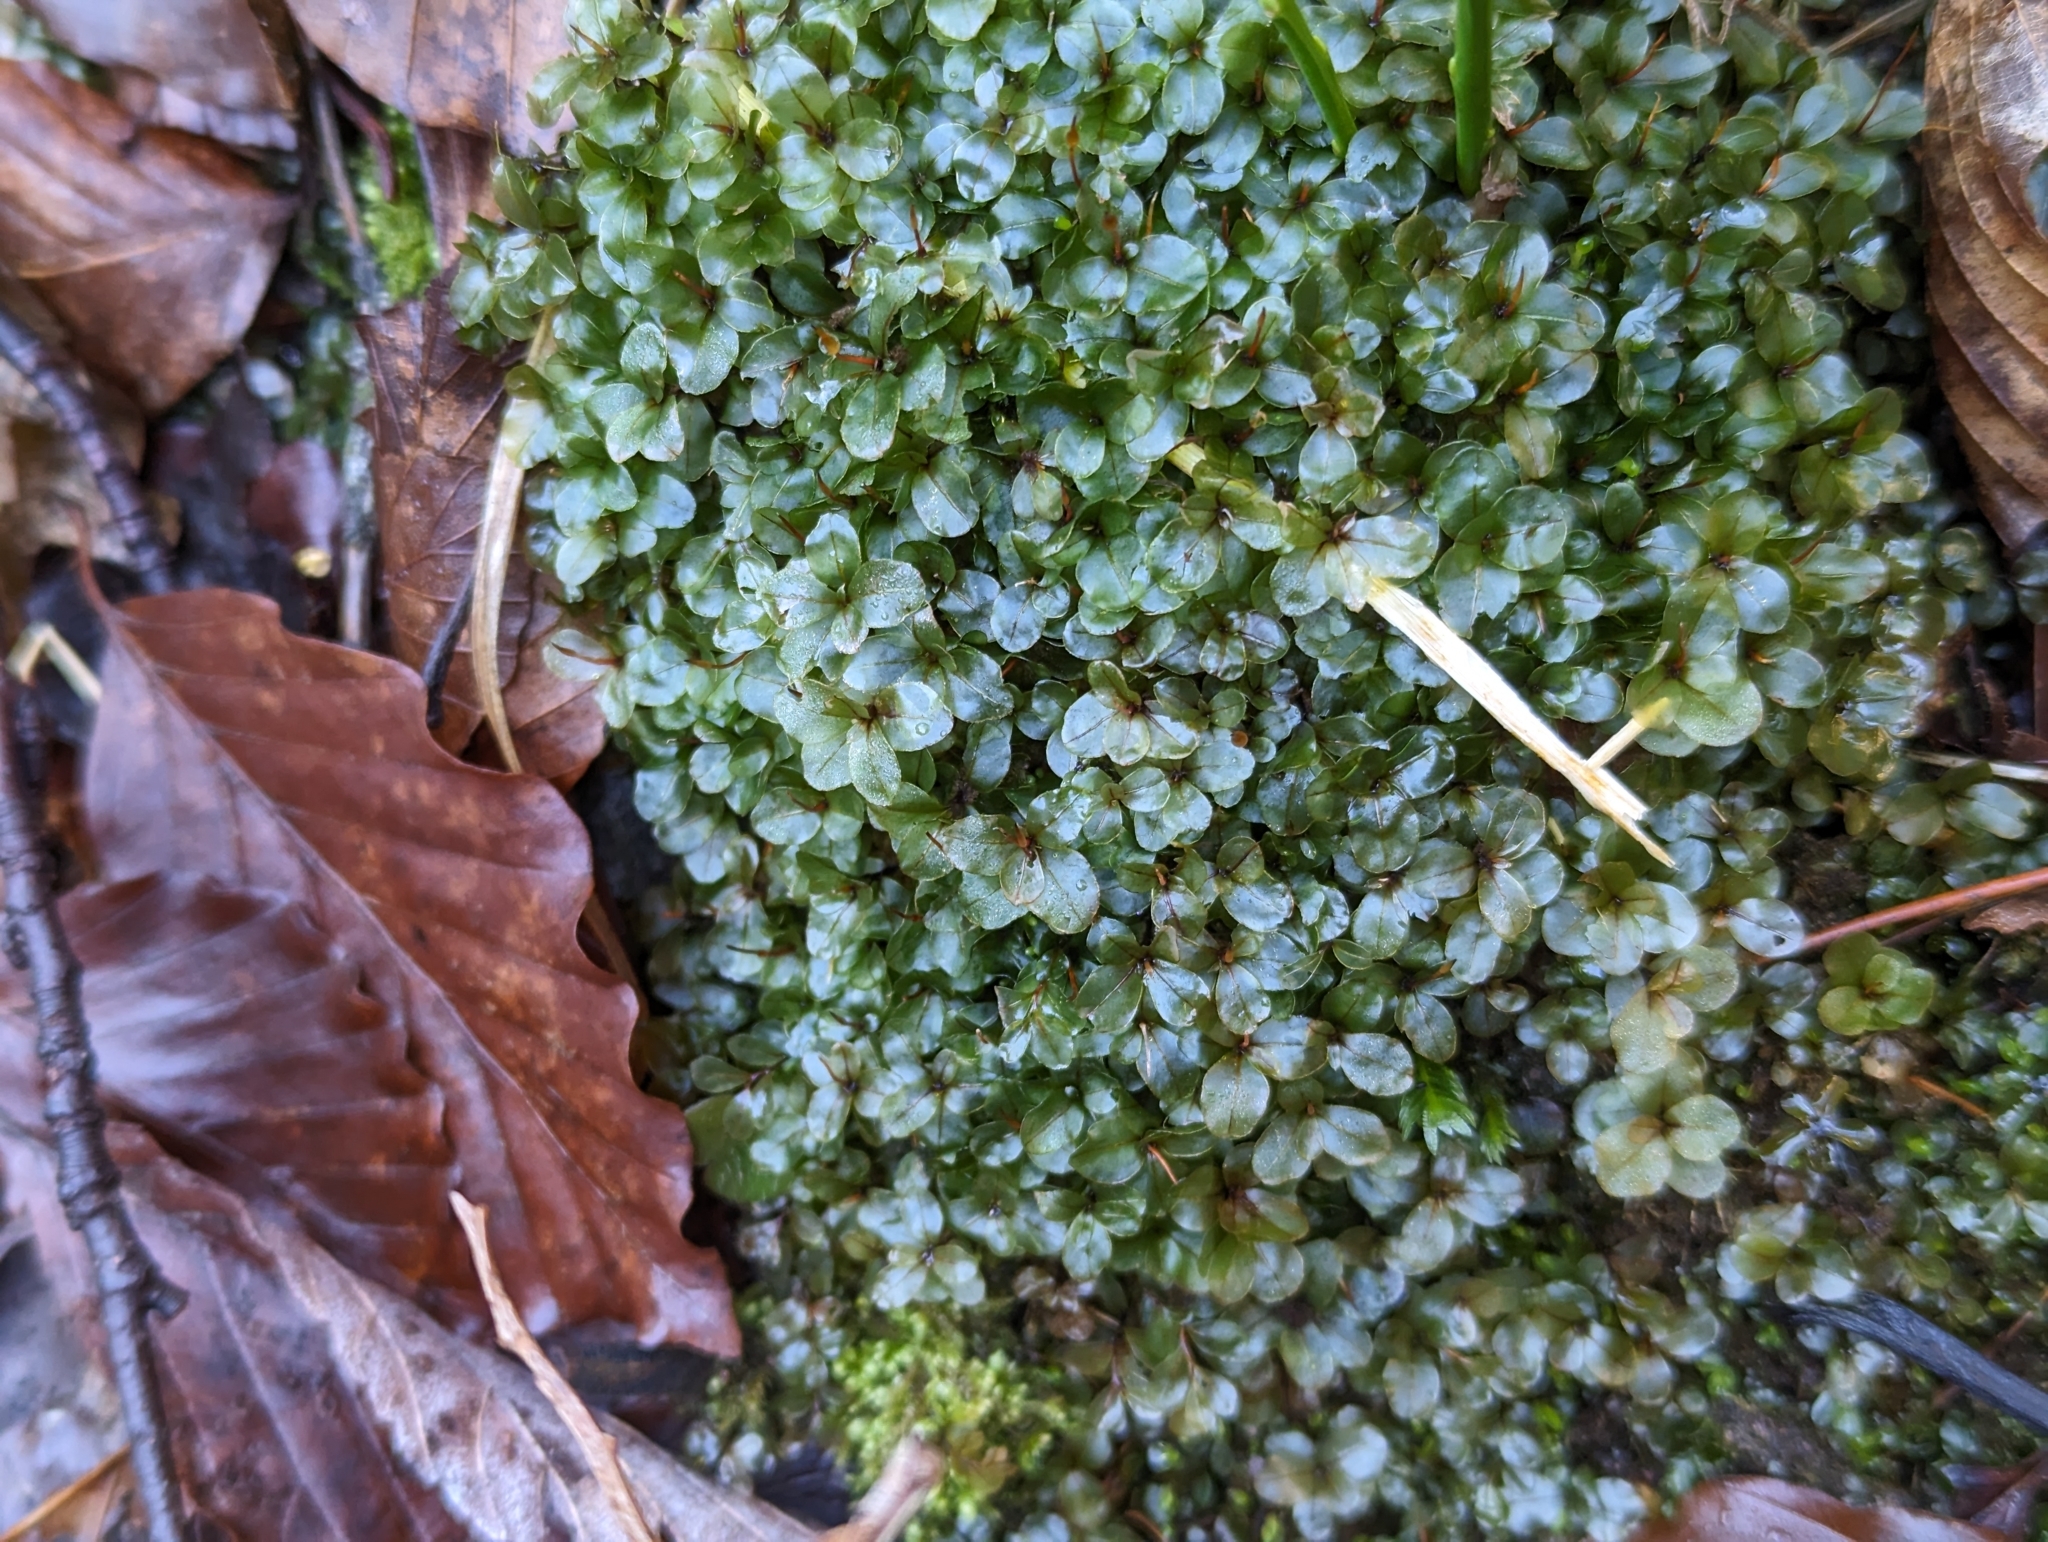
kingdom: Plantae
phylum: Bryophyta
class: Bryopsida
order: Bryales
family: Mniaceae
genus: Rhizomnium
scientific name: Rhizomnium punctatum
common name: Dotted leafy moss
